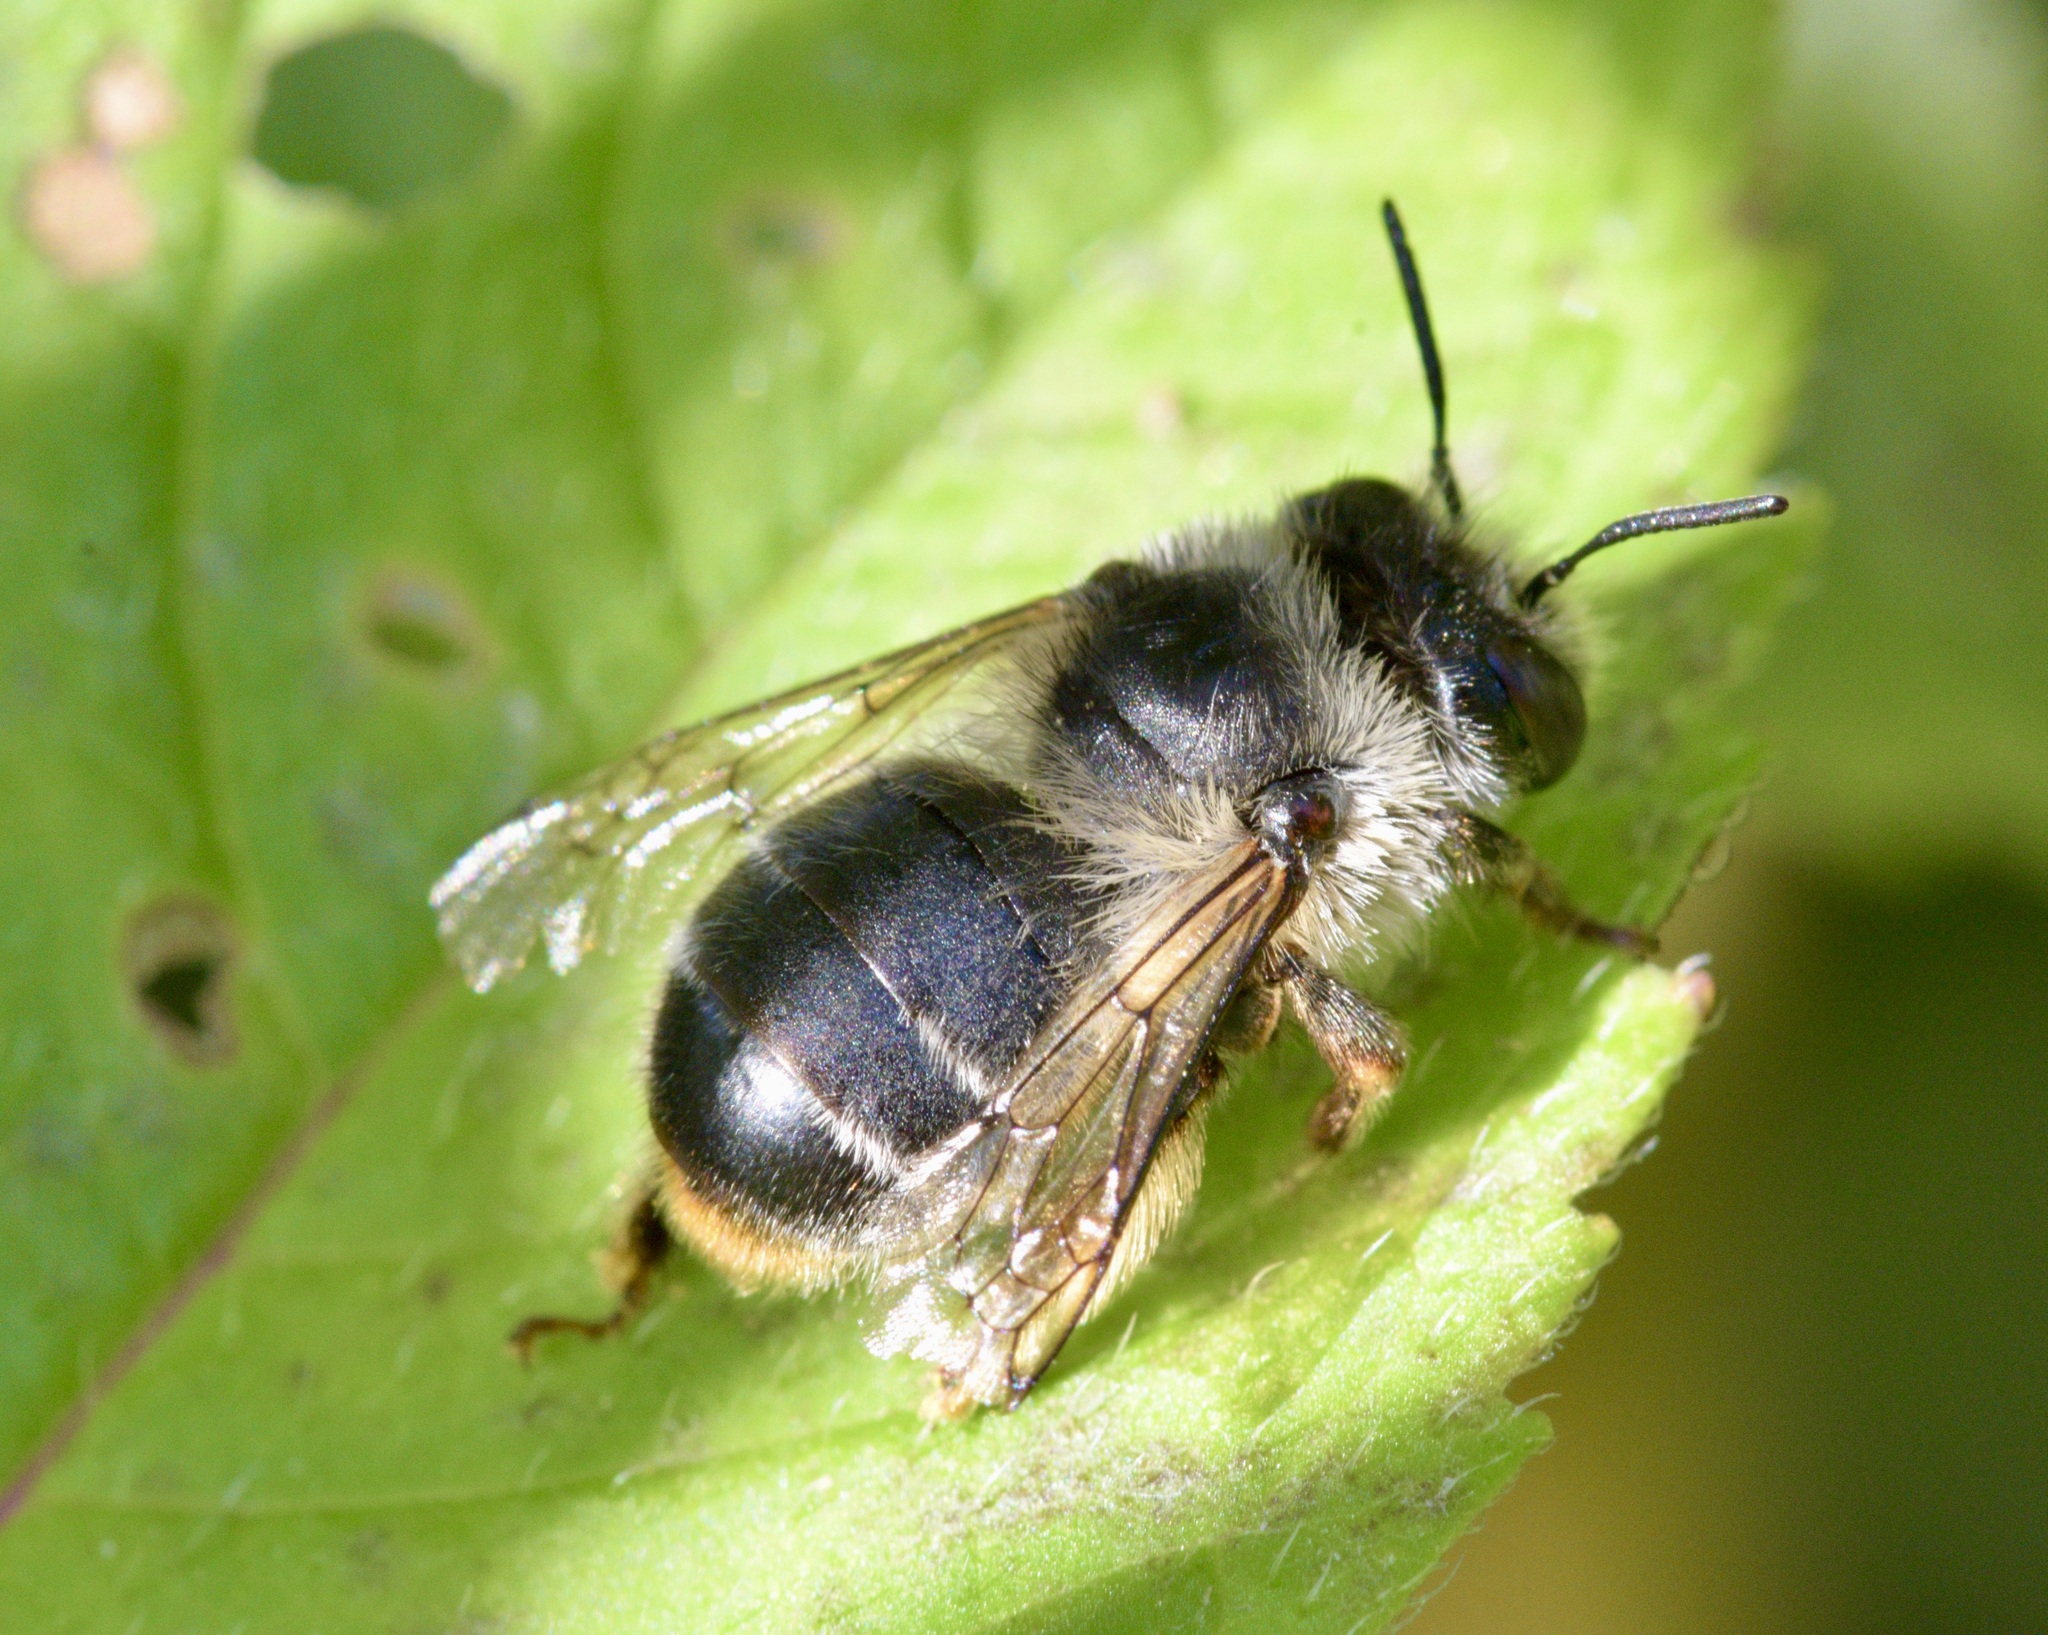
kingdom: Animalia
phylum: Arthropoda
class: Insecta
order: Hymenoptera
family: Apidae
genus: Anthophora
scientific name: Anthophora terminalis
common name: Orange-tipped wood-digger bee
